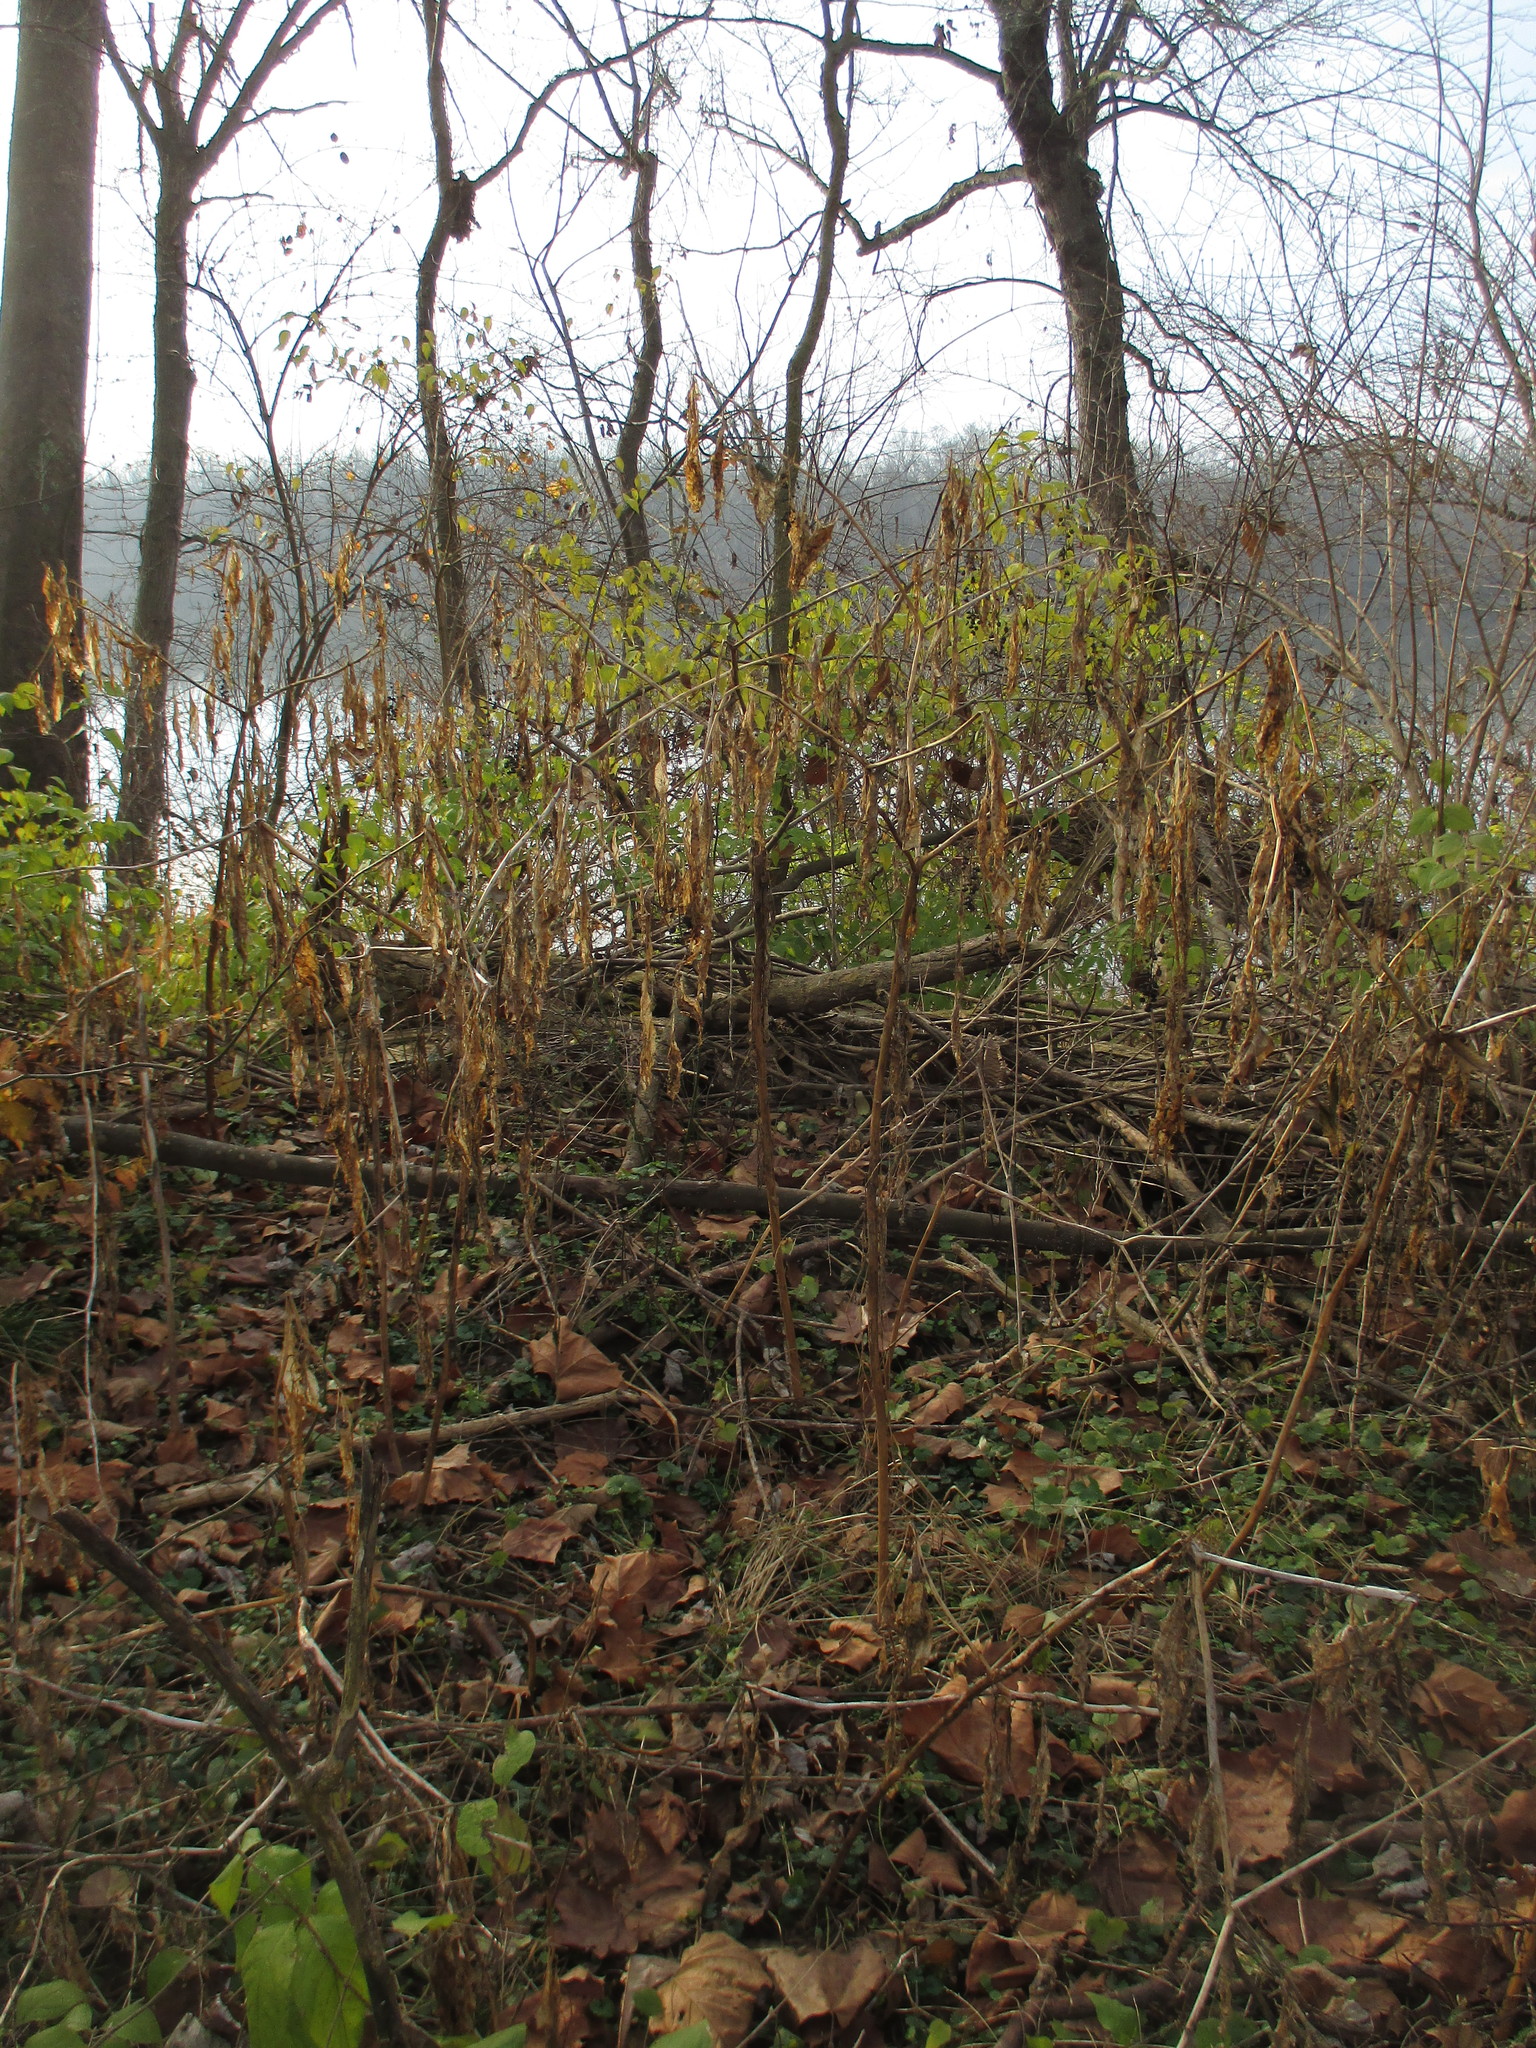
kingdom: Plantae
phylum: Tracheophyta
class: Magnoliopsida
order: Caryophyllales
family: Phytolaccaceae
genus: Phytolacca
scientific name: Phytolacca americana
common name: American pokeweed
